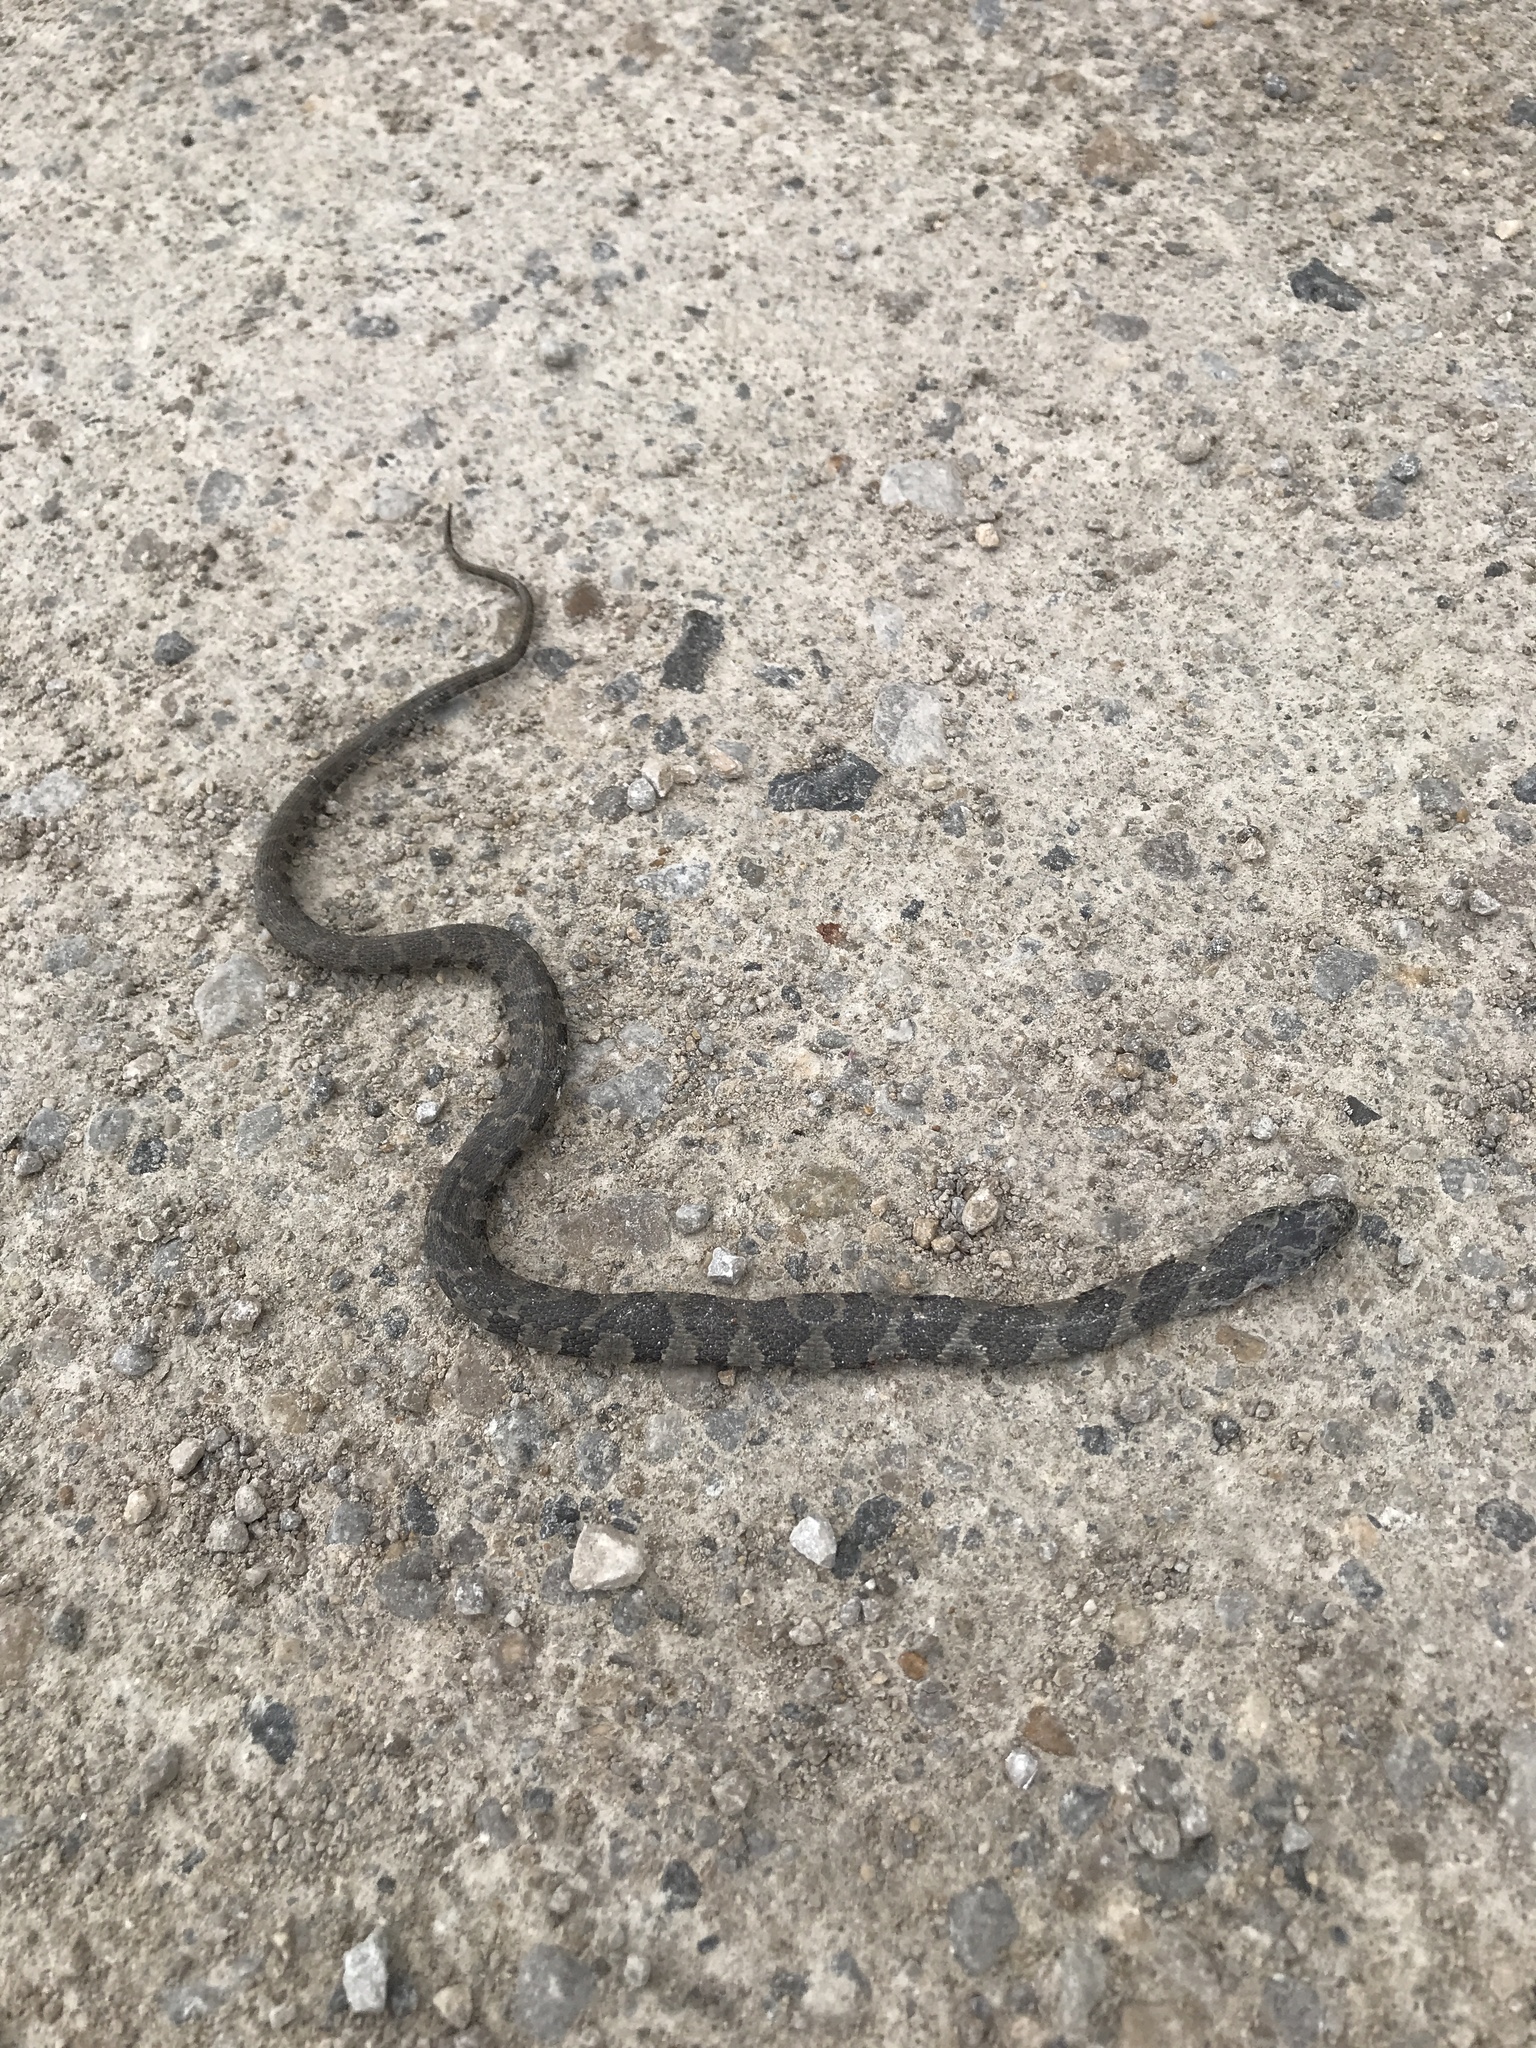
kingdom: Animalia
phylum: Chordata
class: Squamata
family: Colubridae
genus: Nerodia
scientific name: Nerodia sipedon
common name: Northern water snake
